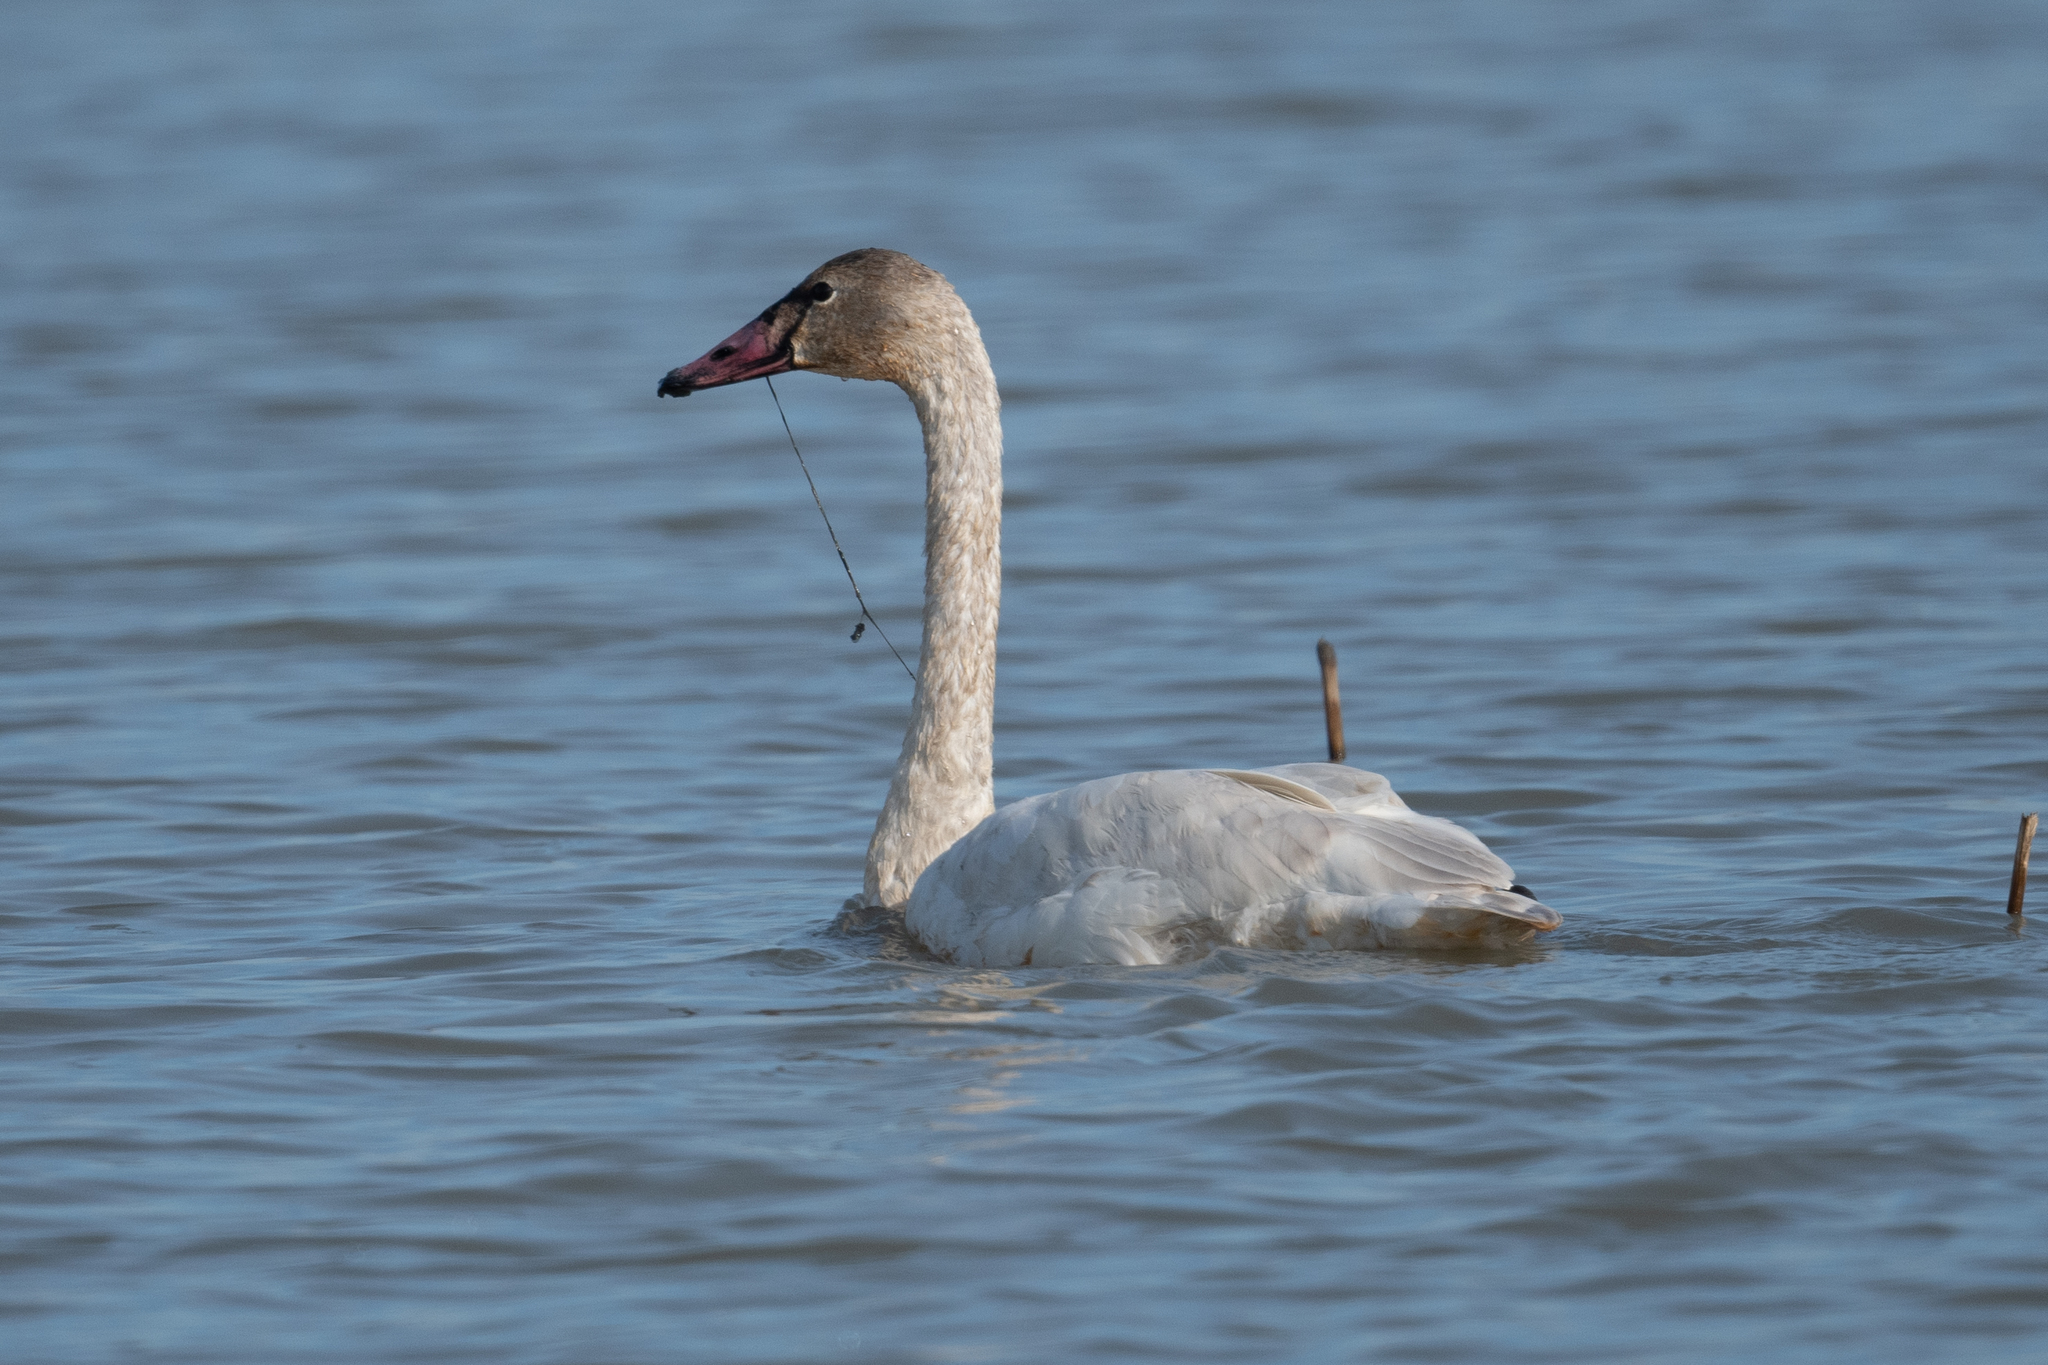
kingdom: Animalia
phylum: Chordata
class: Aves
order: Anseriformes
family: Anatidae
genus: Cygnus
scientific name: Cygnus columbianus
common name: Tundra swan
